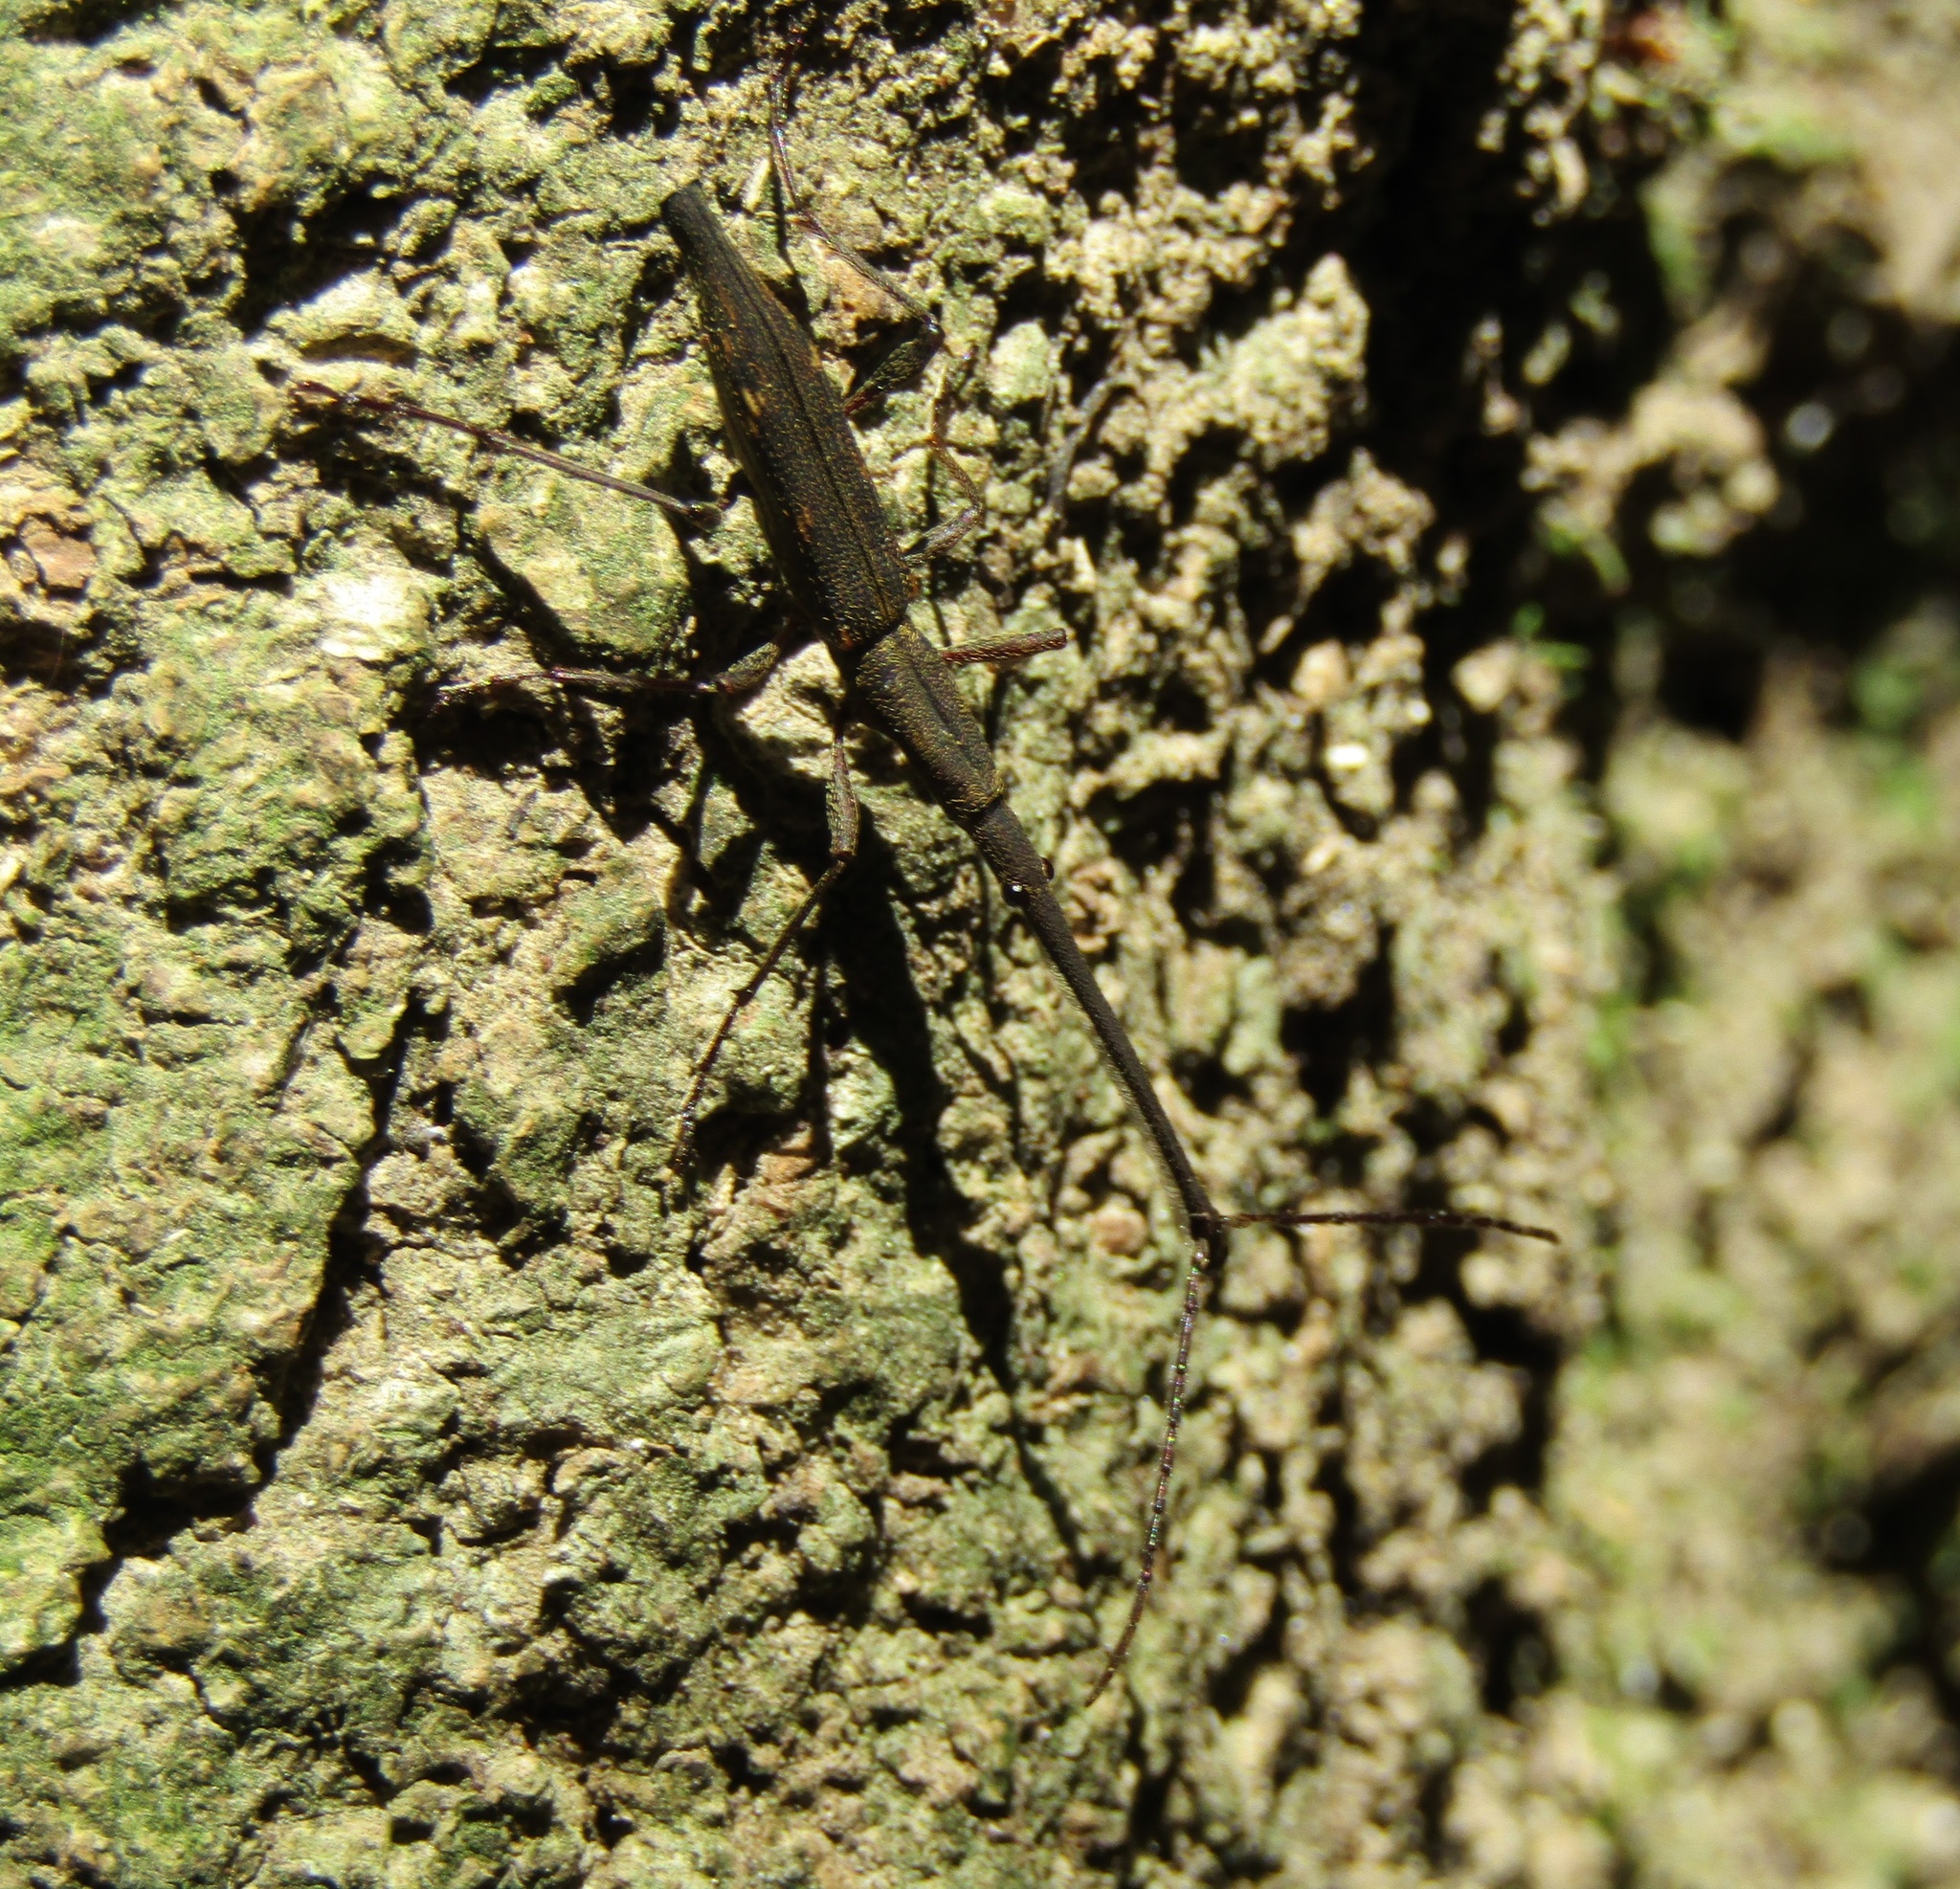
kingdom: Animalia
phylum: Arthropoda
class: Insecta
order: Coleoptera
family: Brentidae
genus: Lasiorhynchus
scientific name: Lasiorhynchus barbicornis
